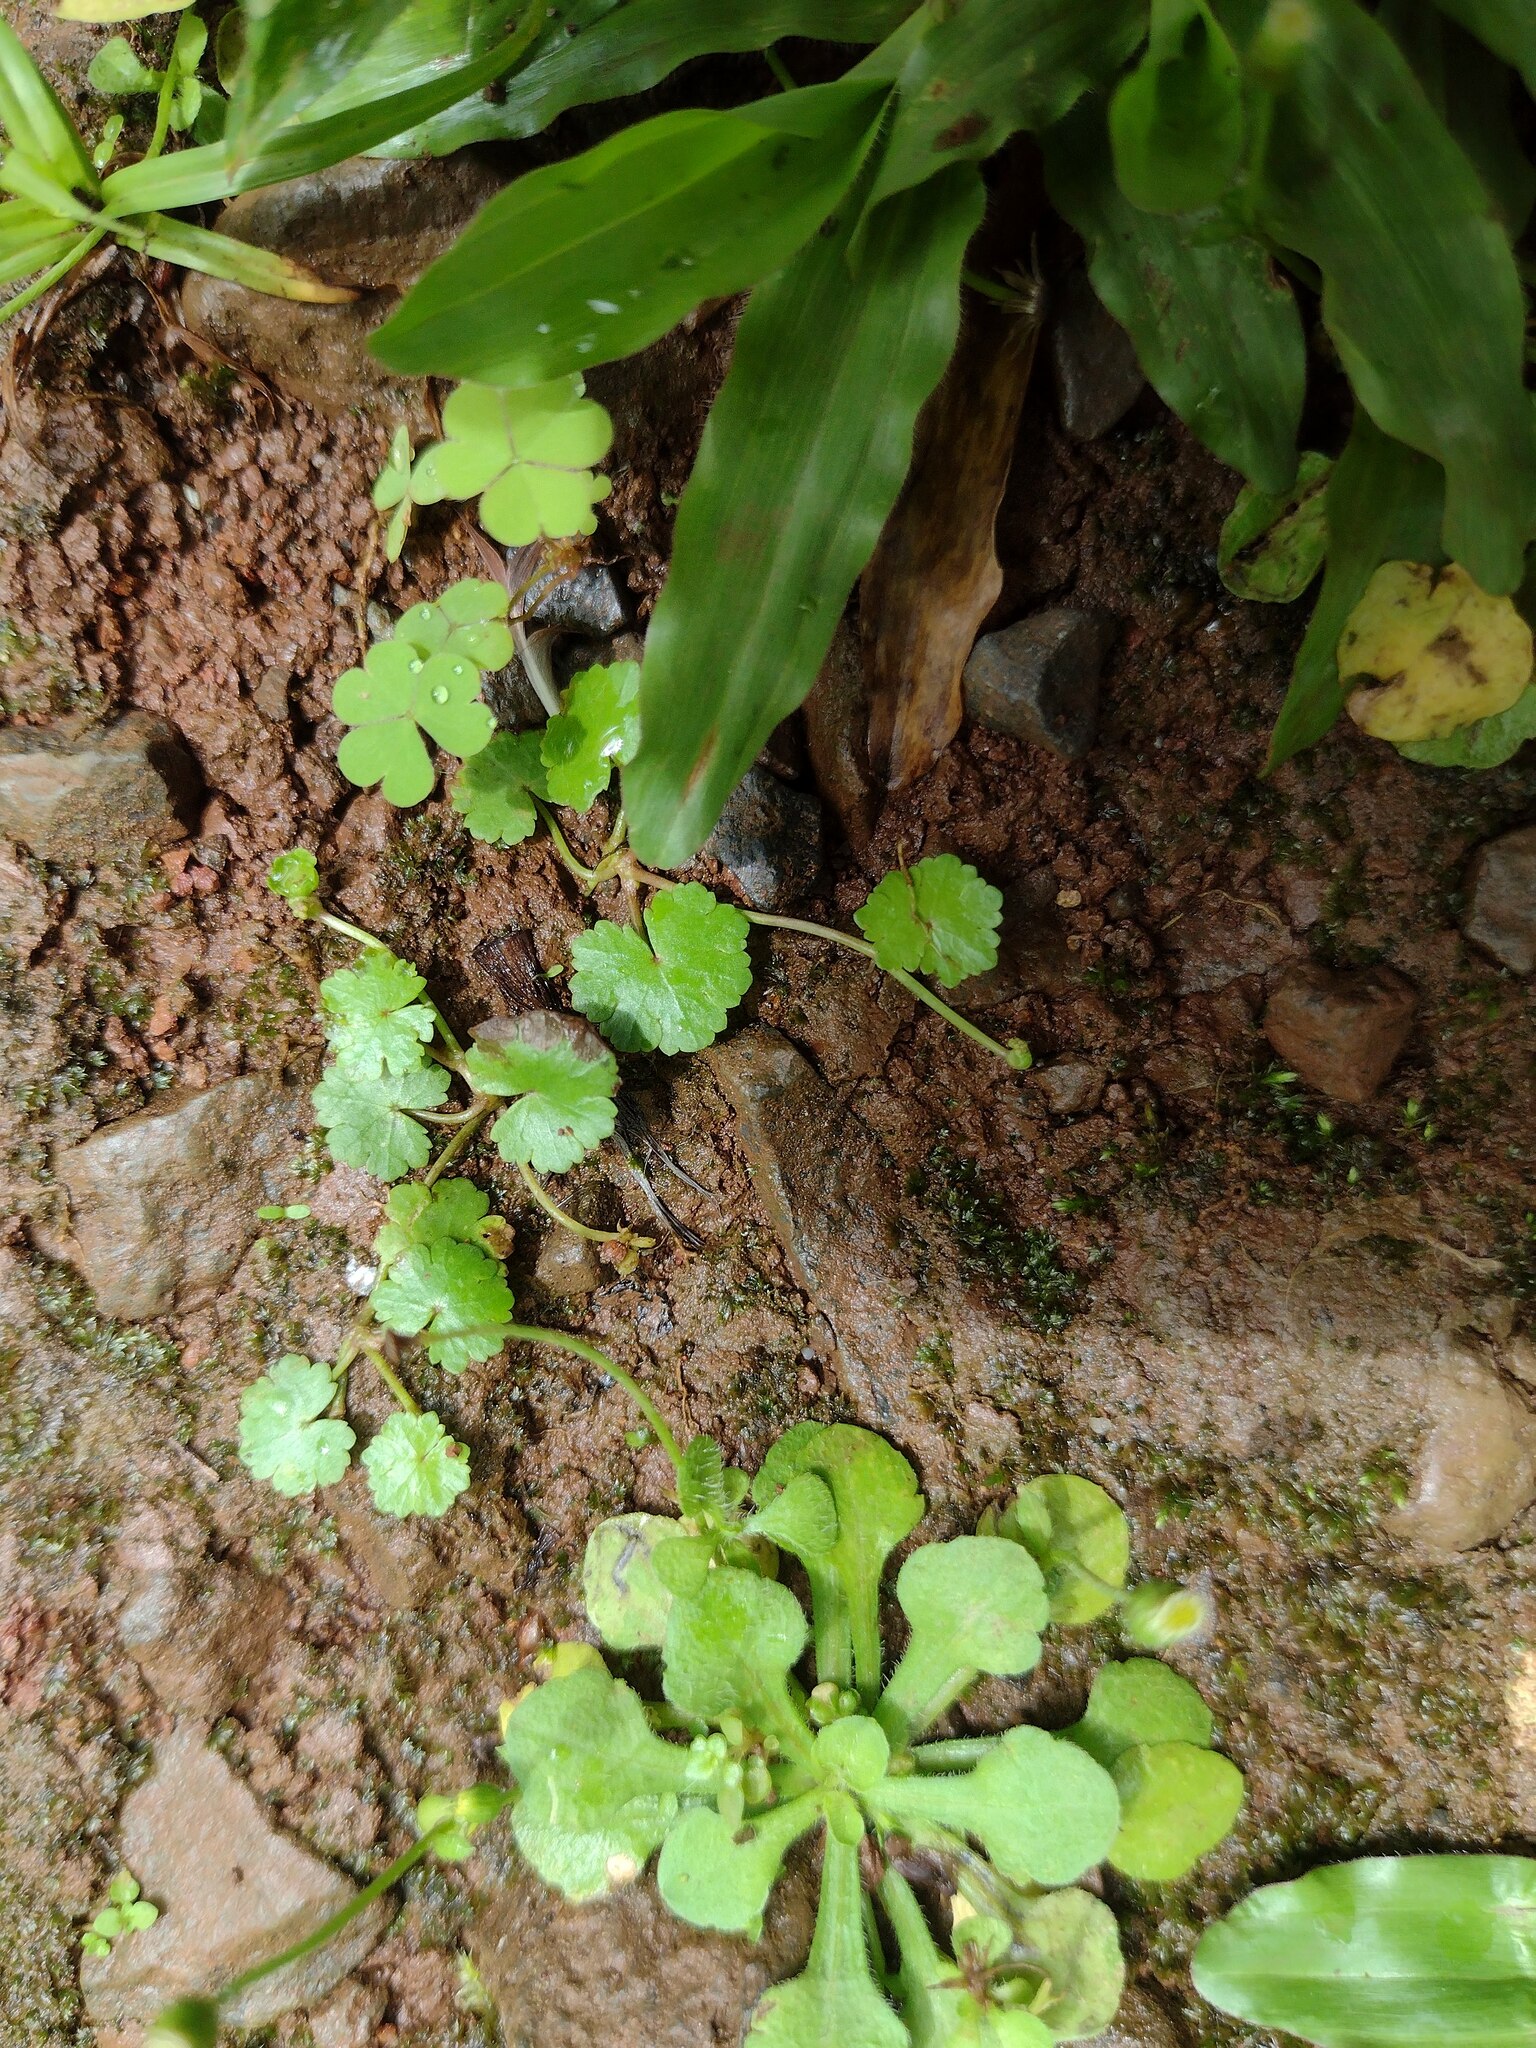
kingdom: Plantae
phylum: Tracheophyta
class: Magnoliopsida
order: Apiales
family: Araliaceae
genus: Hydrocotyle
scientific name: Hydrocotyle sibthorpioides
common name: Lawn marshpennywort
